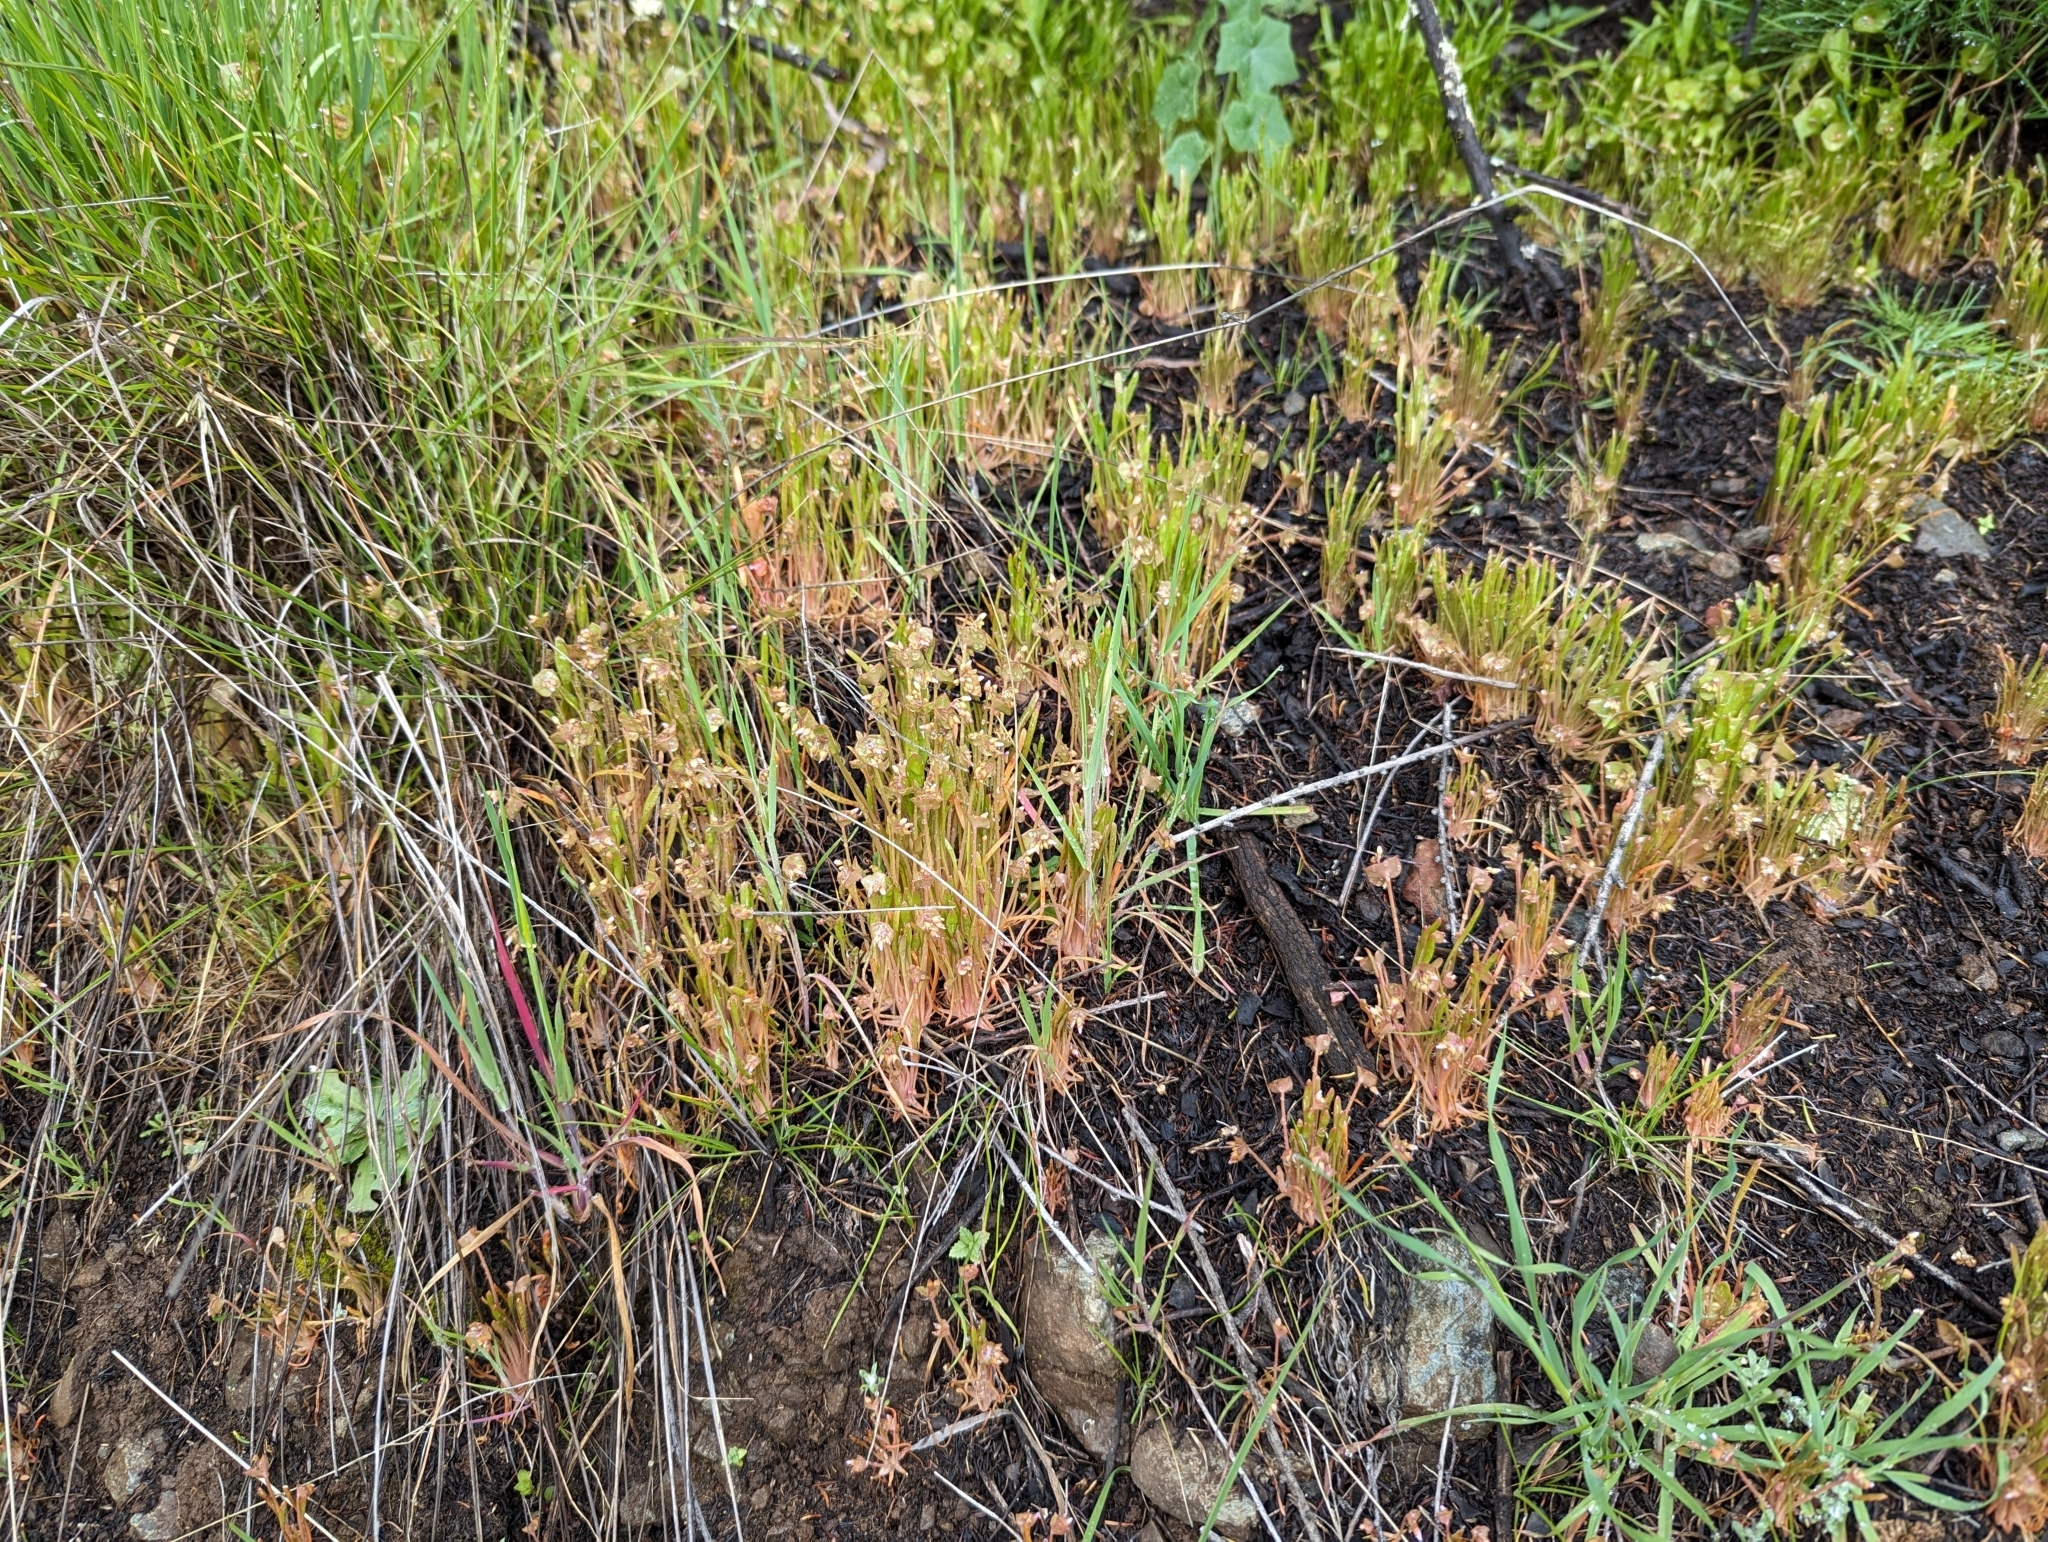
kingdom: Plantae
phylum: Tracheophyta
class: Magnoliopsida
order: Caryophyllales
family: Montiaceae
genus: Claytonia
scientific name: Claytonia parviflora
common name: Indian-lettuce
